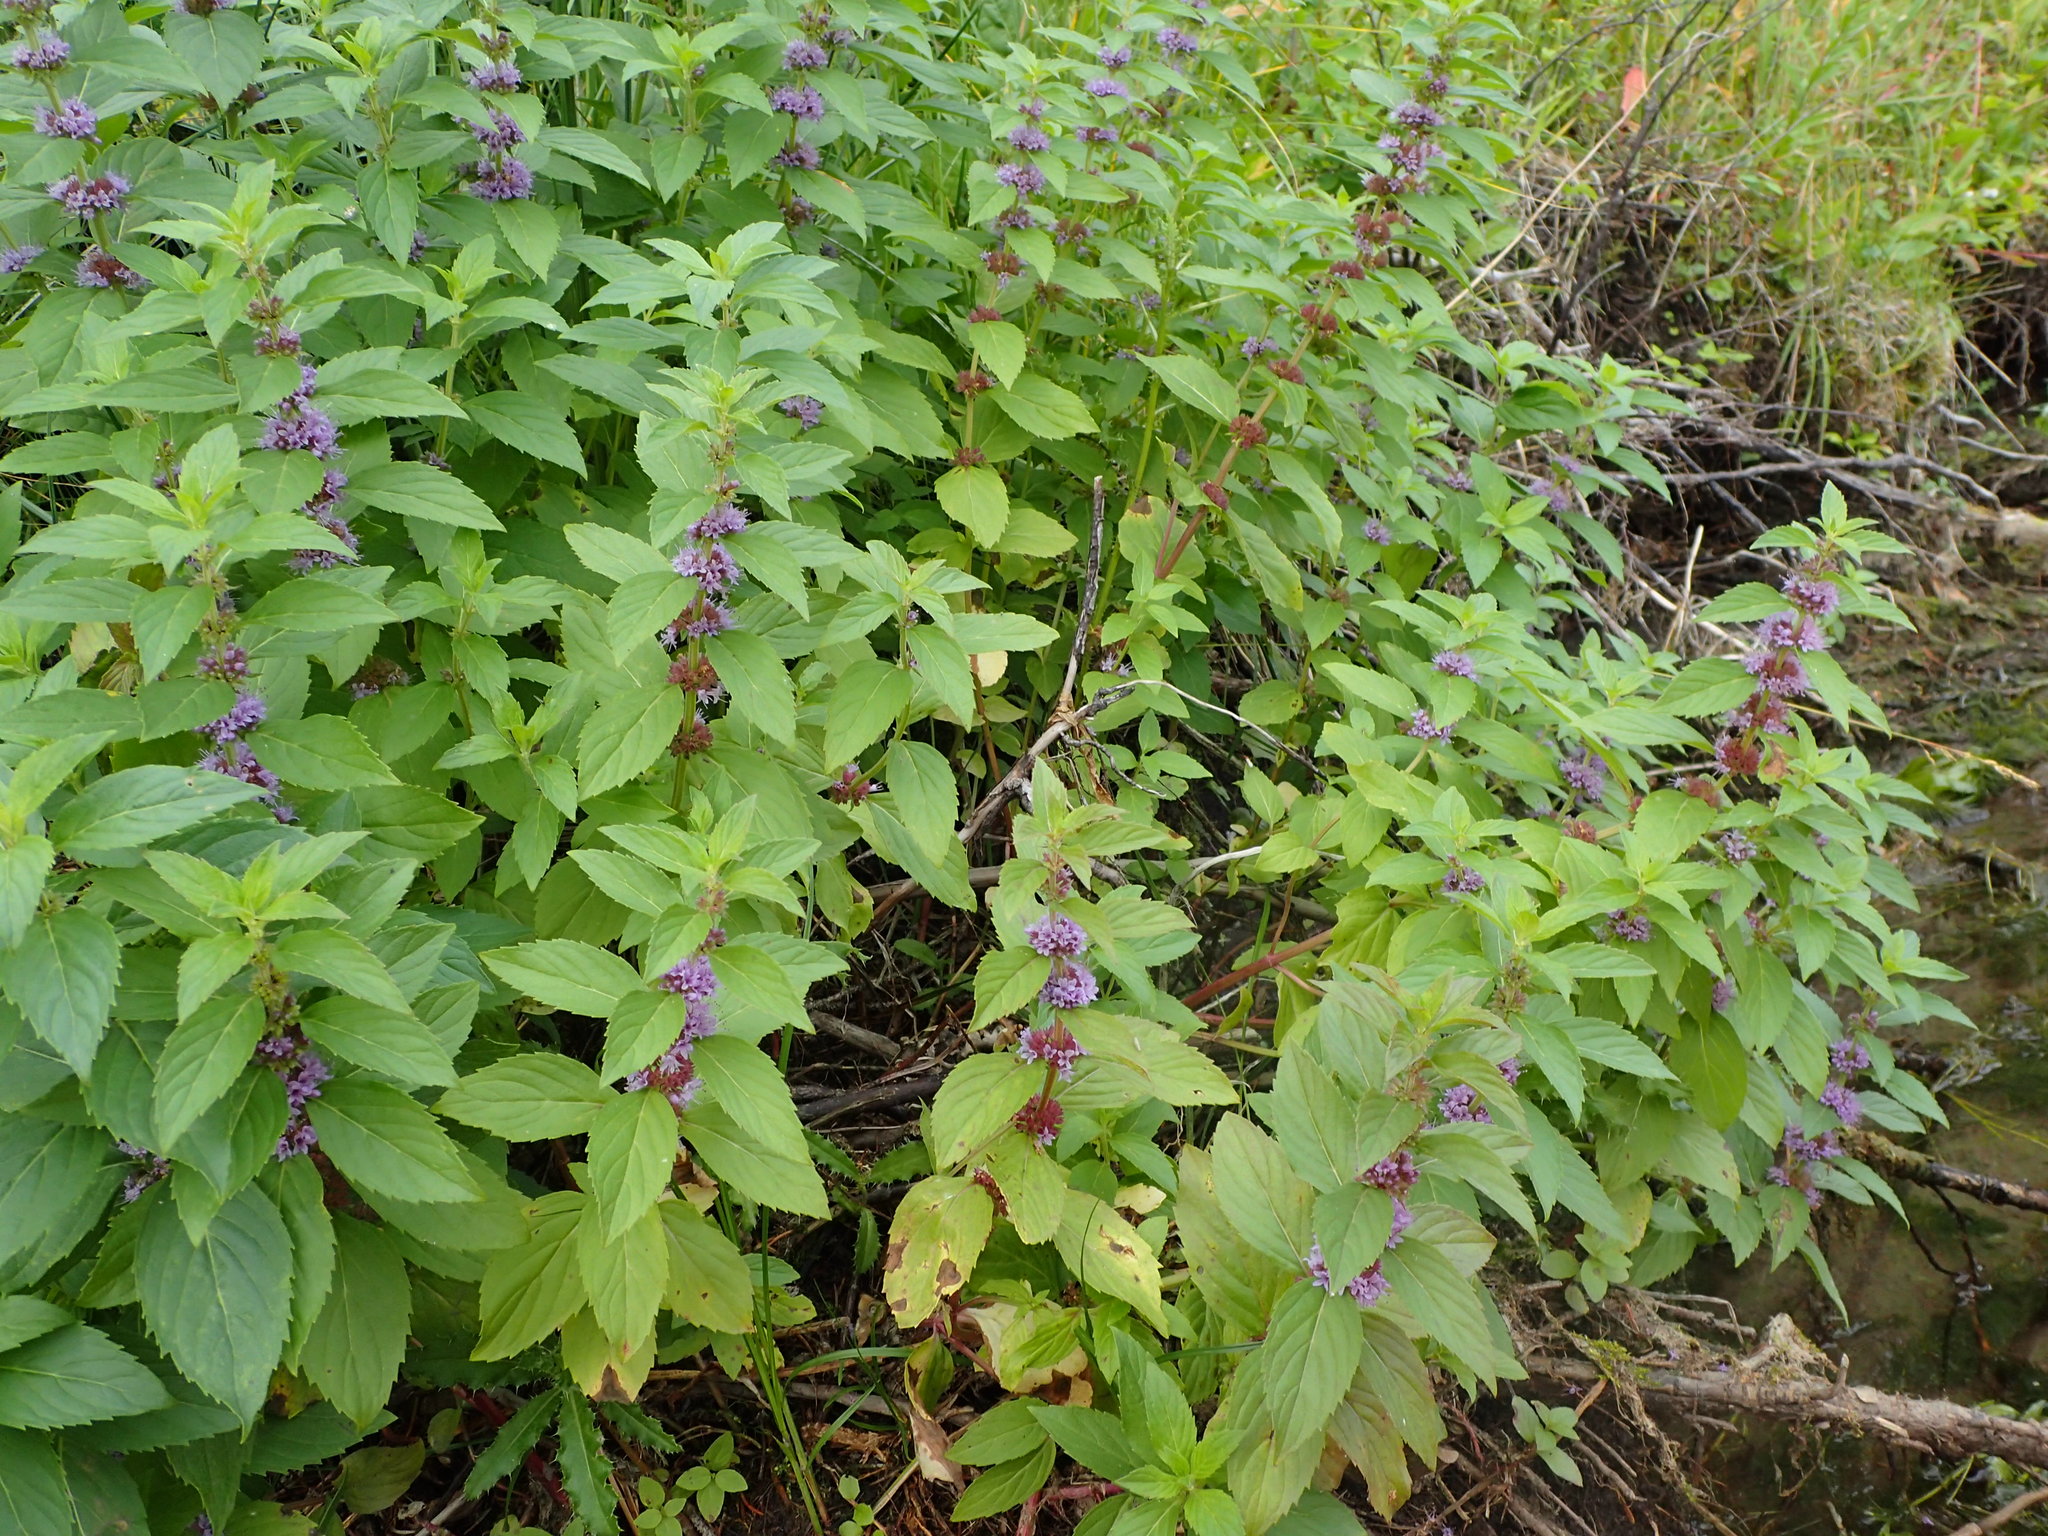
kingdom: Plantae
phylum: Tracheophyta
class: Magnoliopsida
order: Lamiales
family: Lamiaceae
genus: Mentha
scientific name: Mentha canadensis
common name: American corn mint
